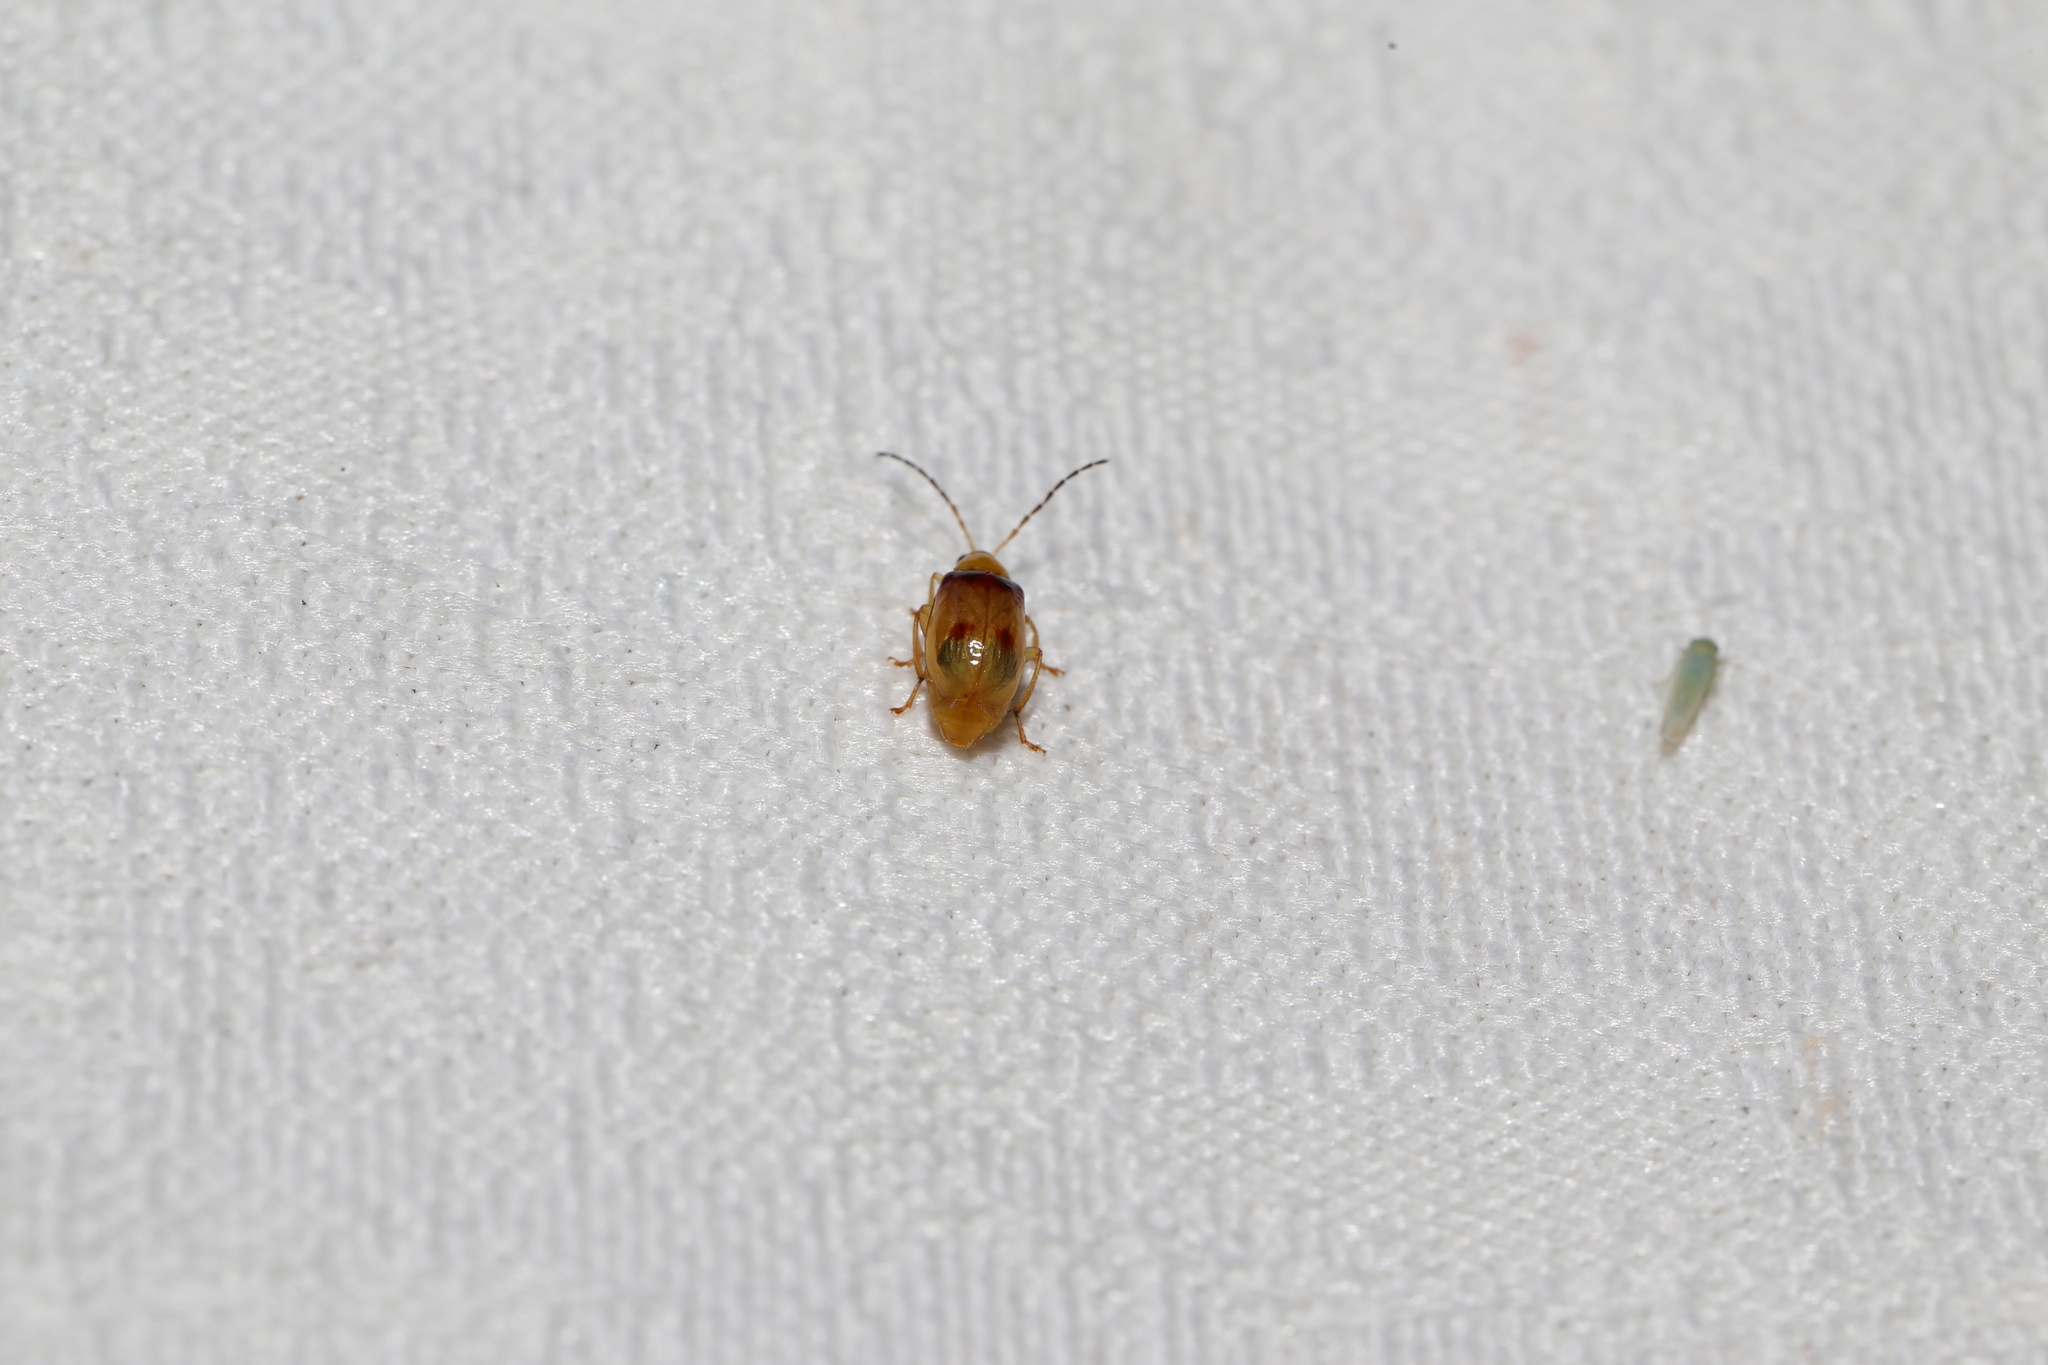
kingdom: Animalia
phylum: Arthropoda
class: Insecta
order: Coleoptera
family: Chrysomelidae
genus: Monolepta
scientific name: Monolepta
